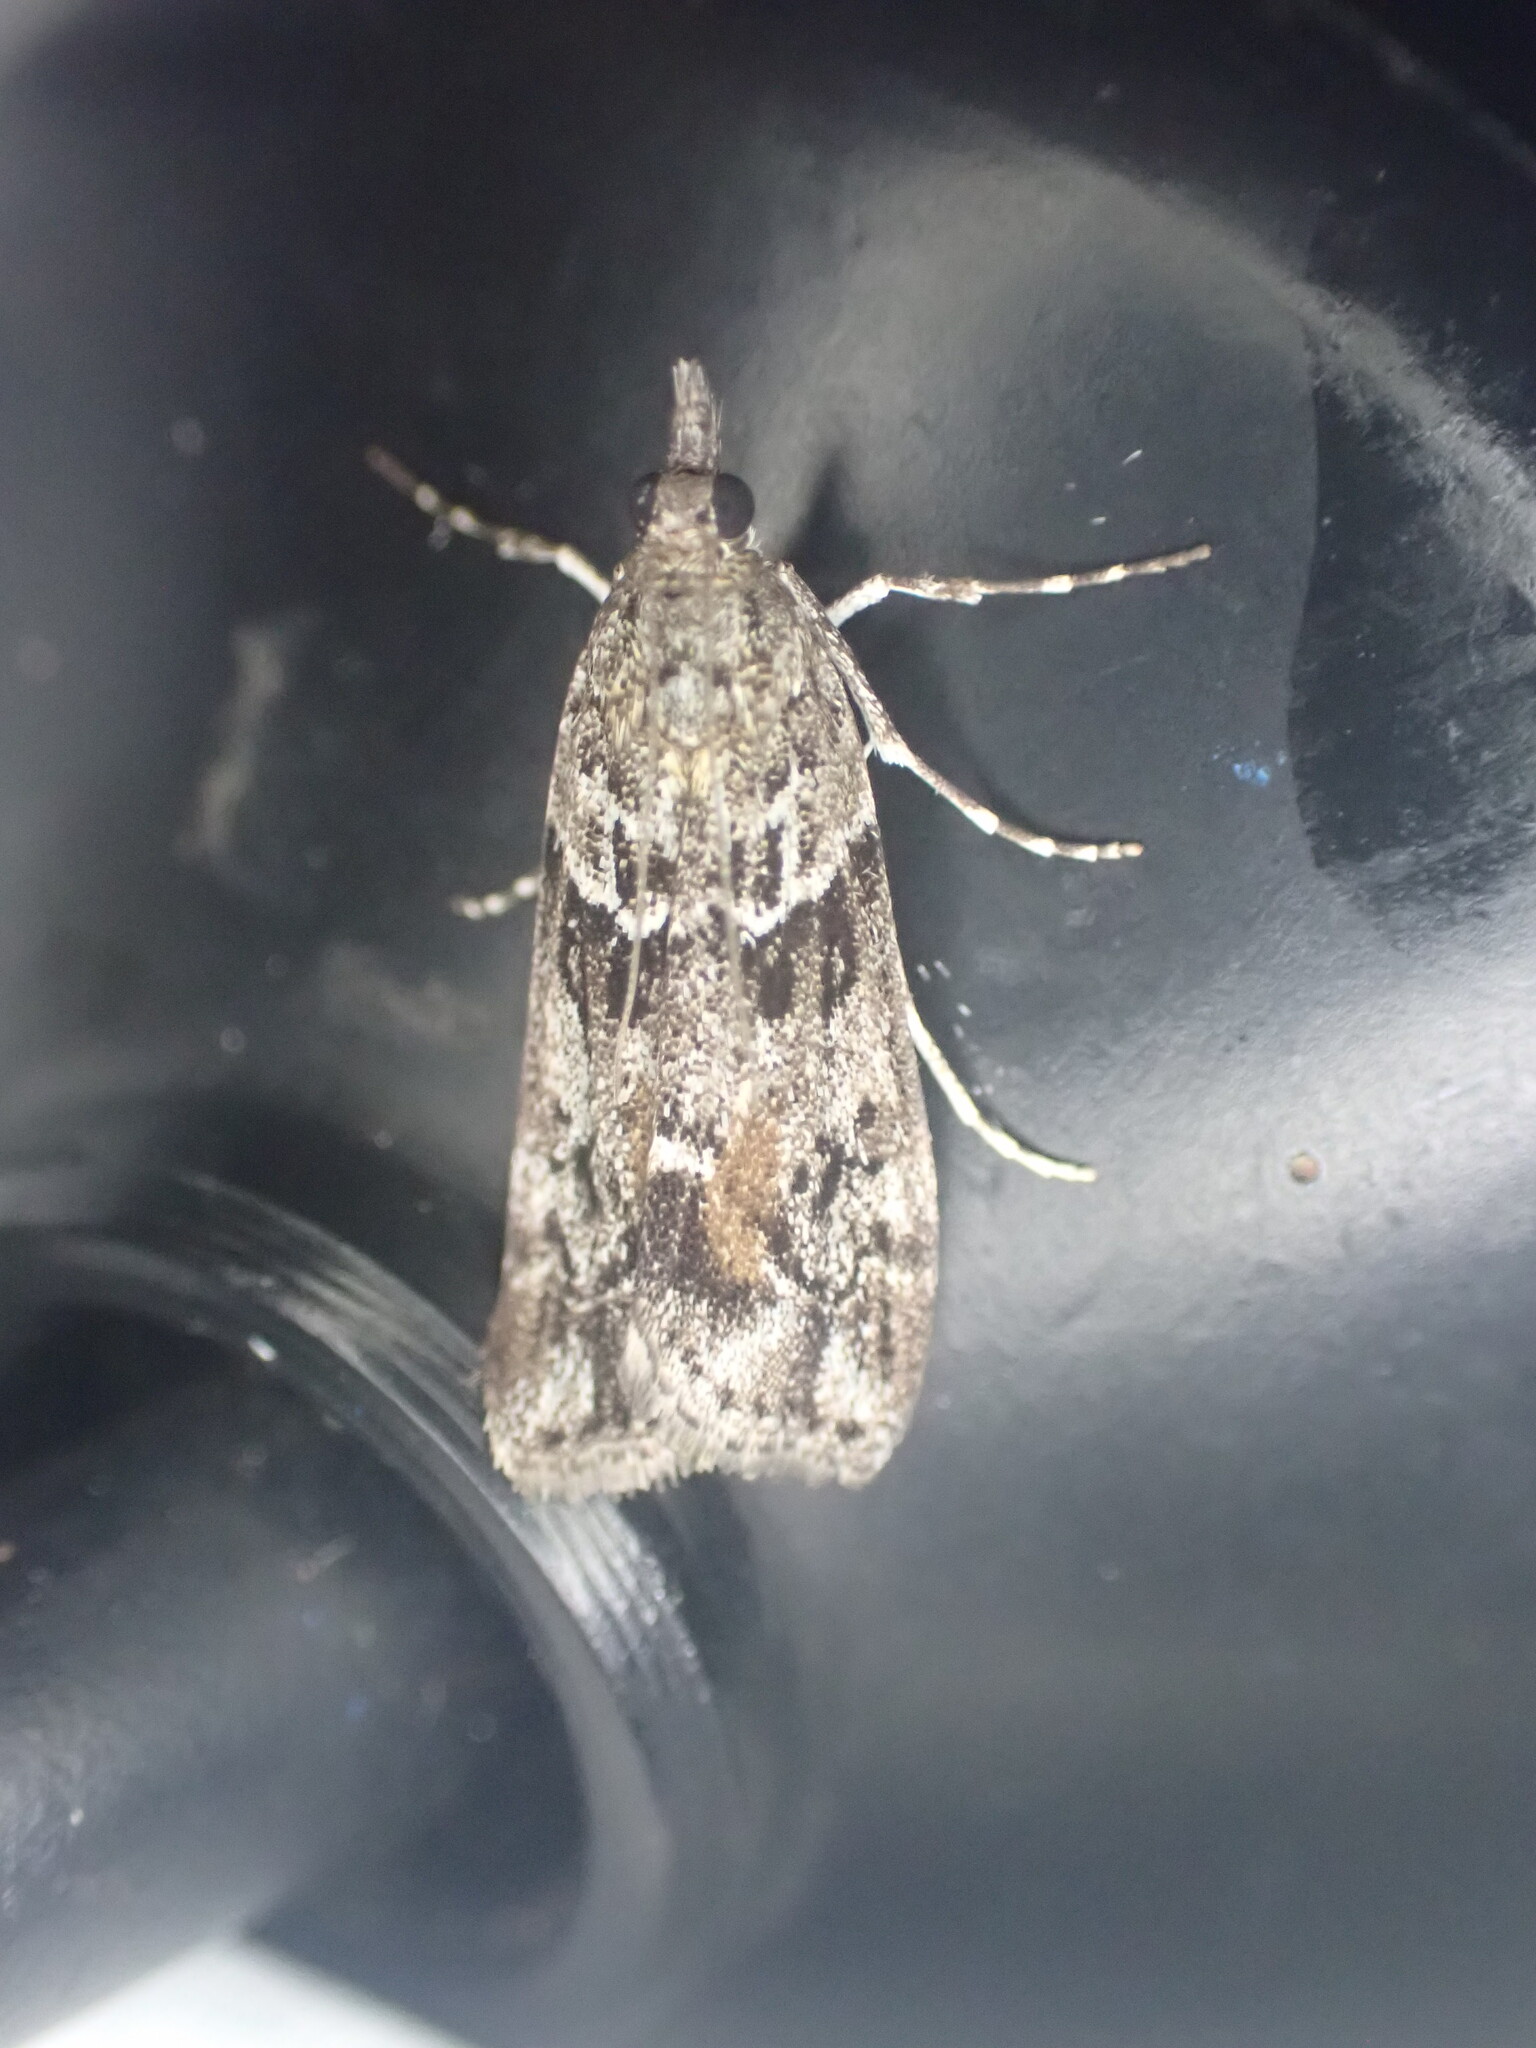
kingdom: Animalia
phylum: Arthropoda
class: Insecta
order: Lepidoptera
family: Crambidae
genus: Eudonia
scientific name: Eudonia submarginalis
